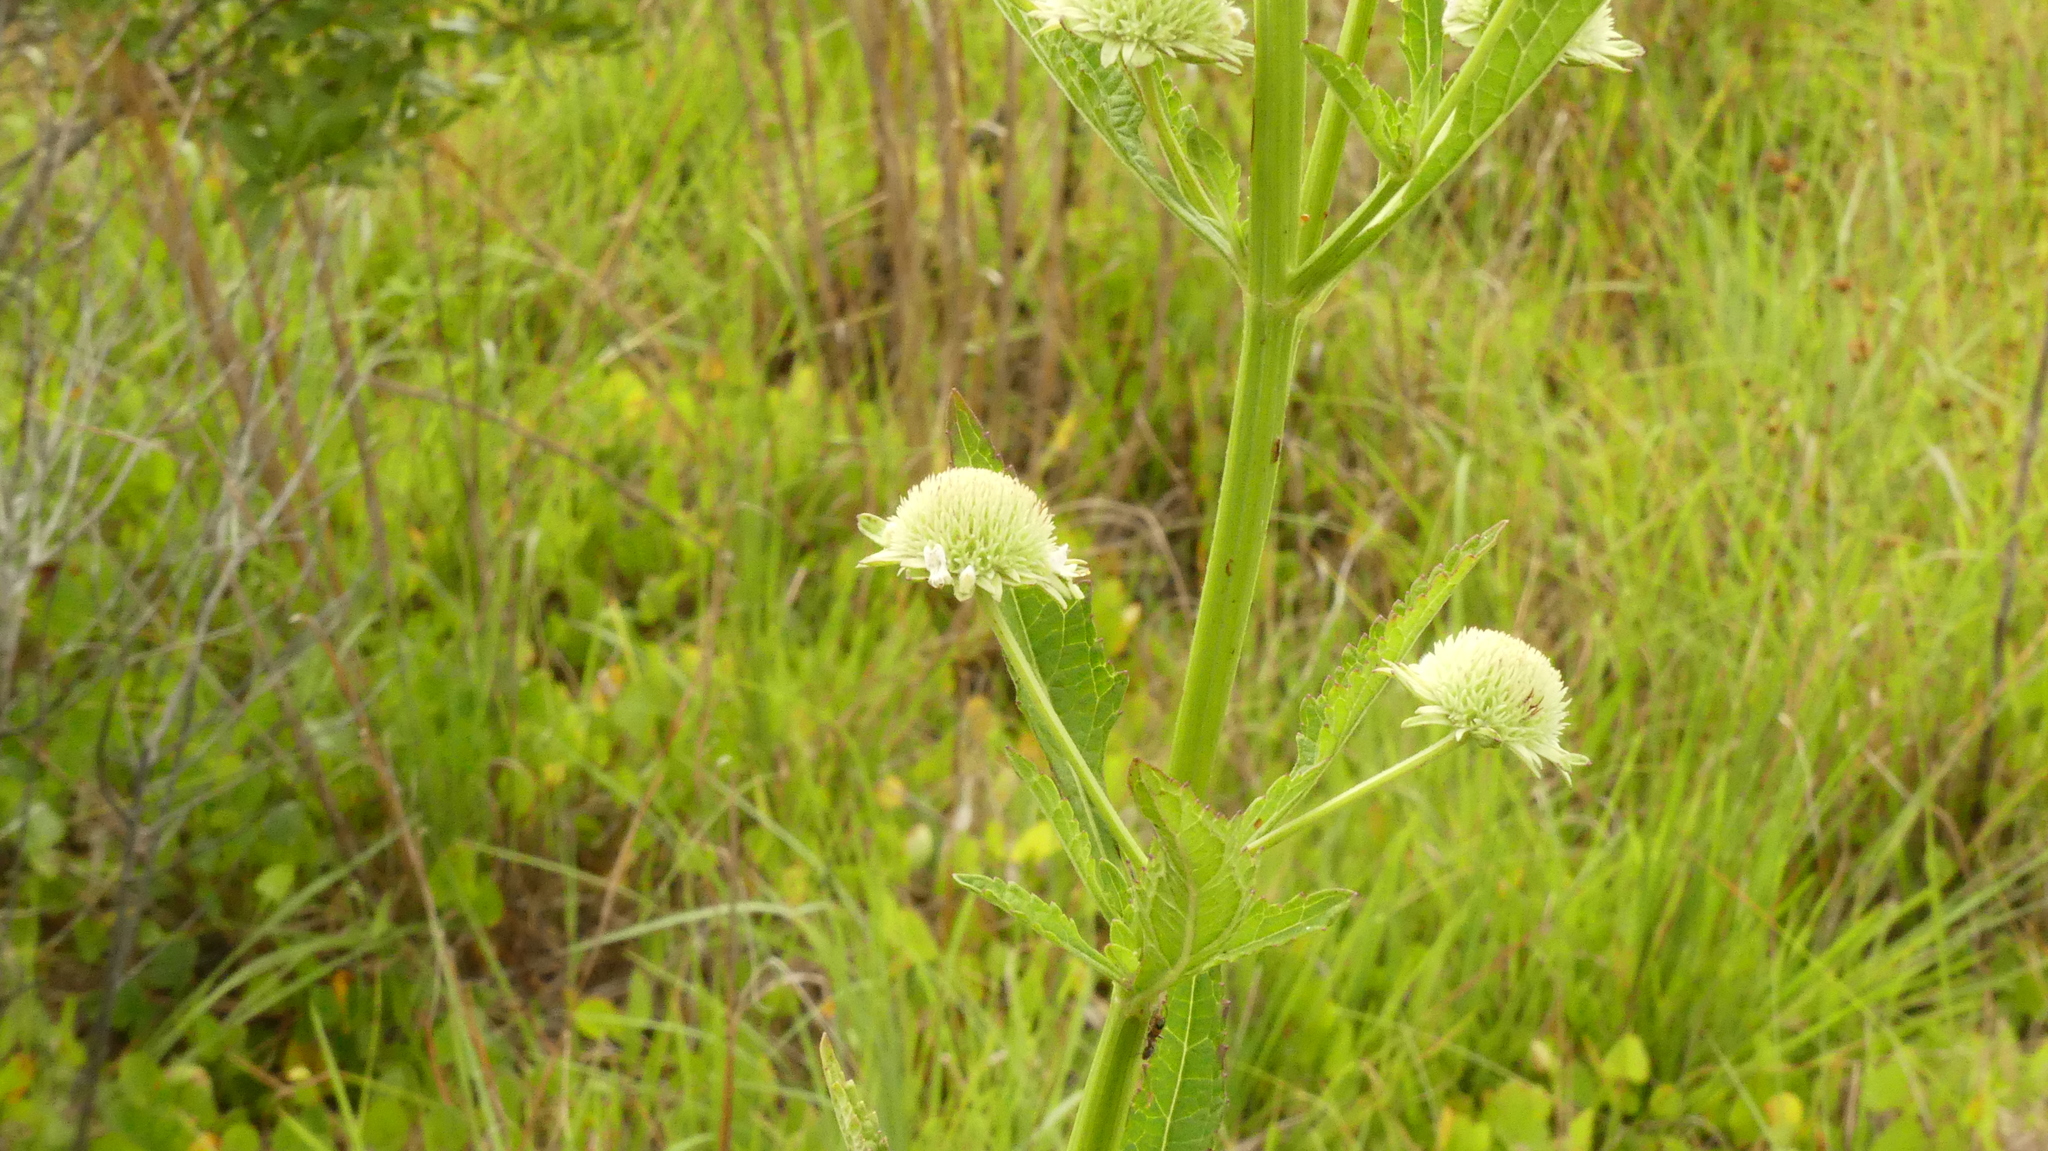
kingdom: Plantae
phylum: Tracheophyta
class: Magnoliopsida
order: Lamiales
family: Lamiaceae
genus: Hyptis
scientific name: Hyptis alata
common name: Cluster bush-mint
